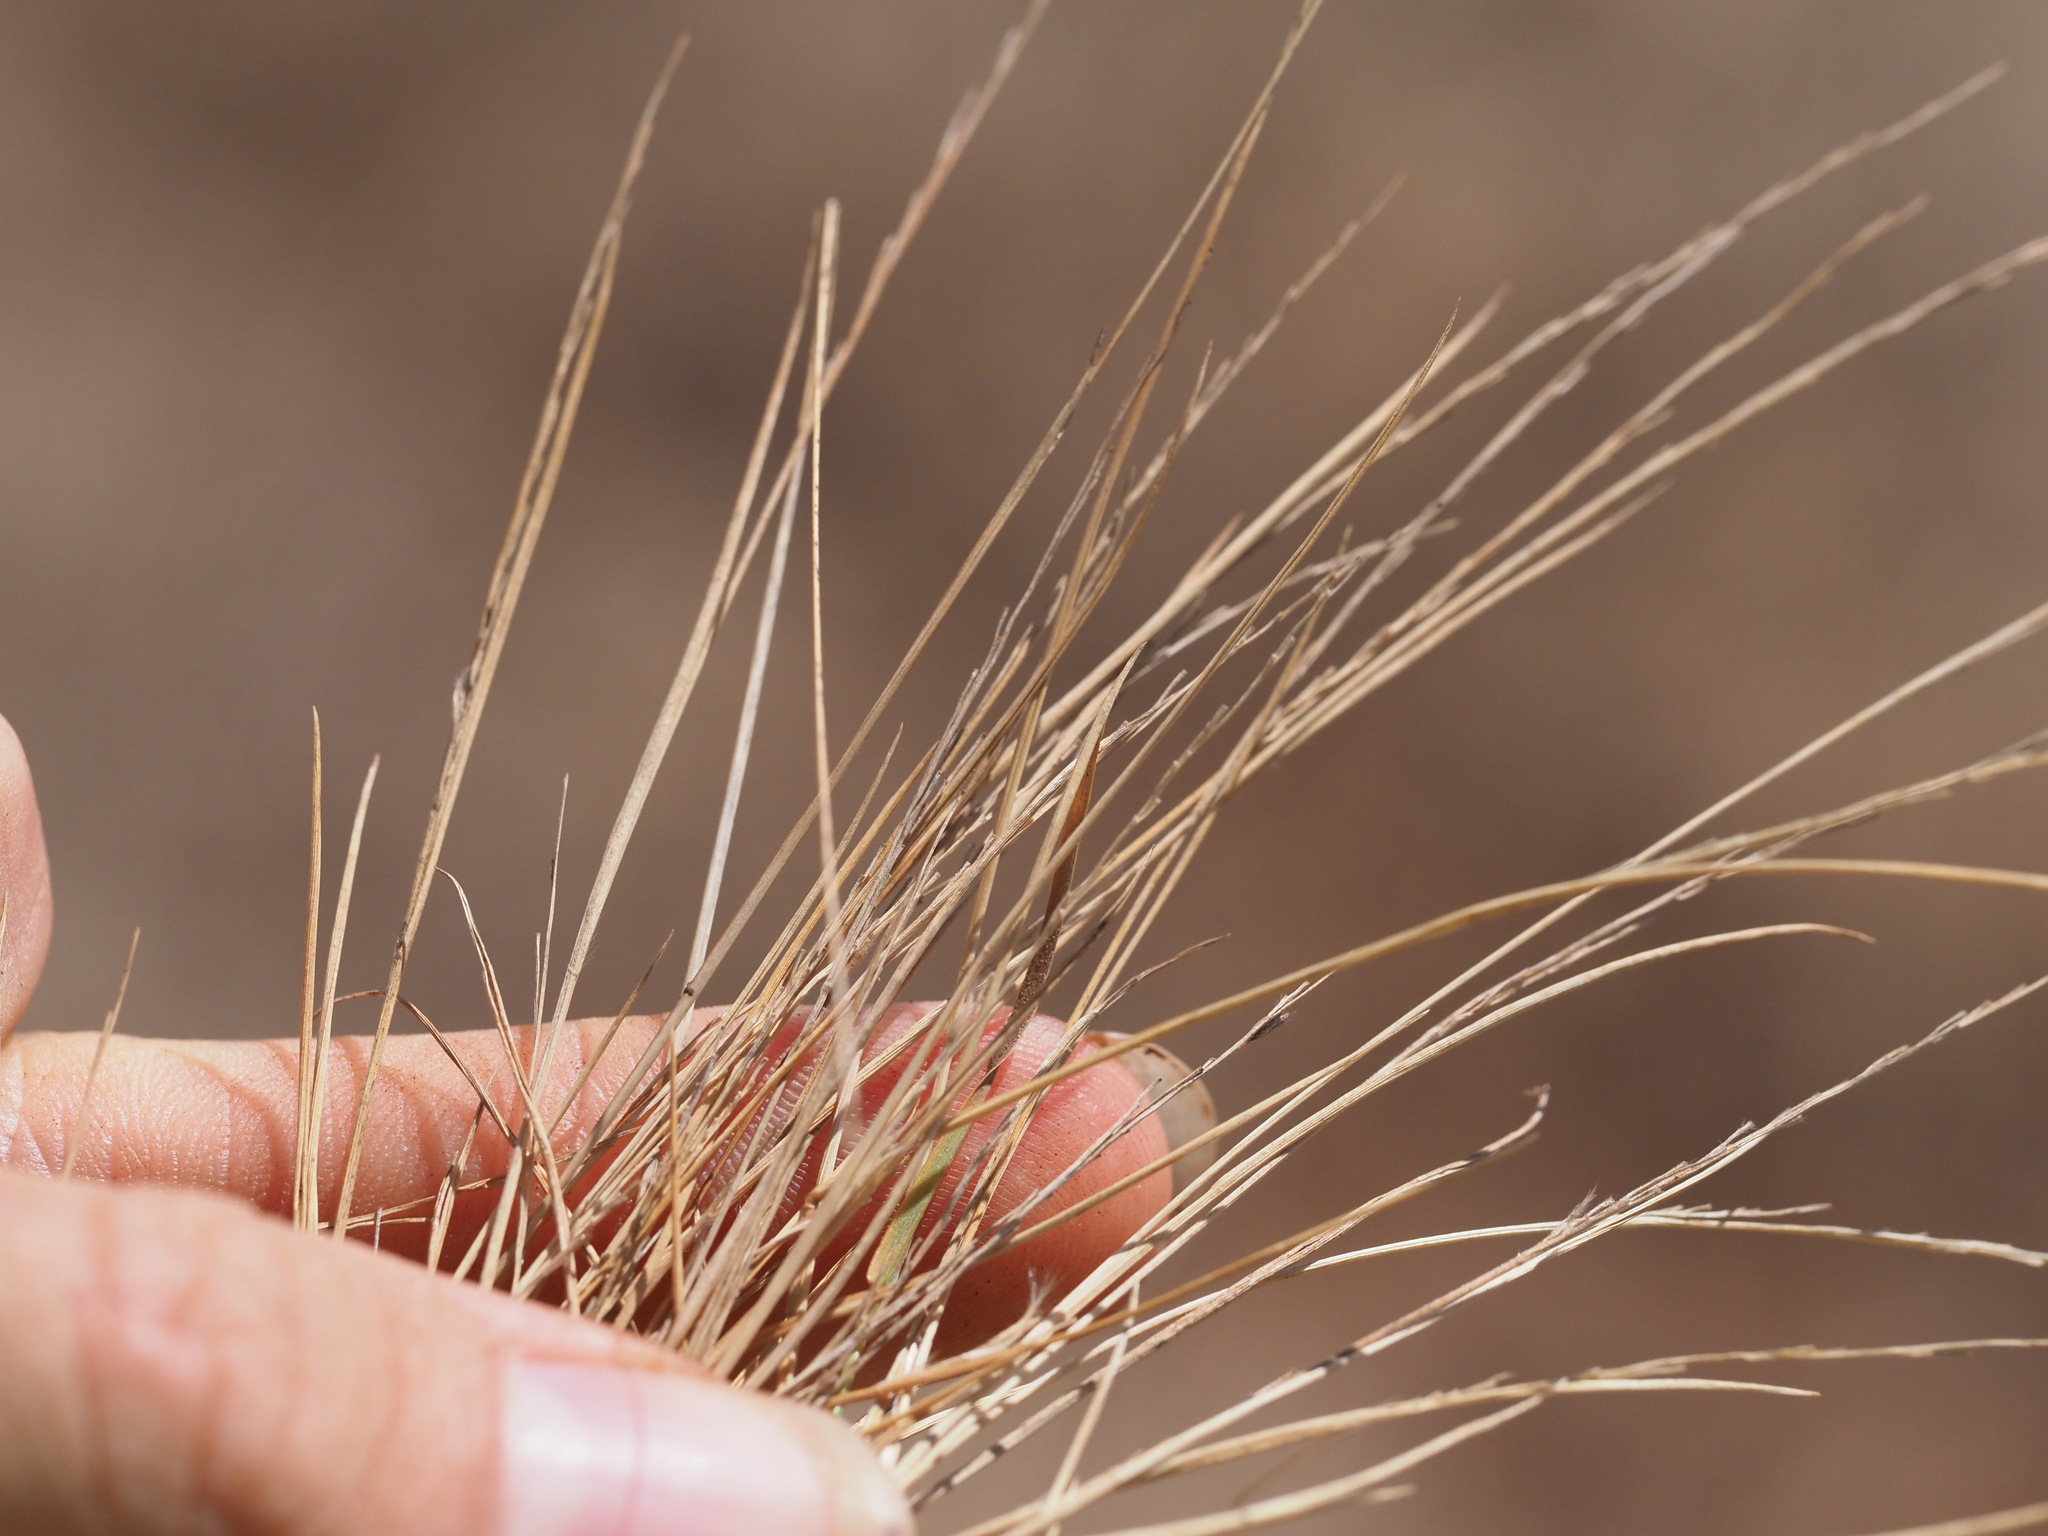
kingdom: Plantae
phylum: Tracheophyta
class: Liliopsida
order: Poales
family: Poaceae
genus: Panicum
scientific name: Panicum fauriei
